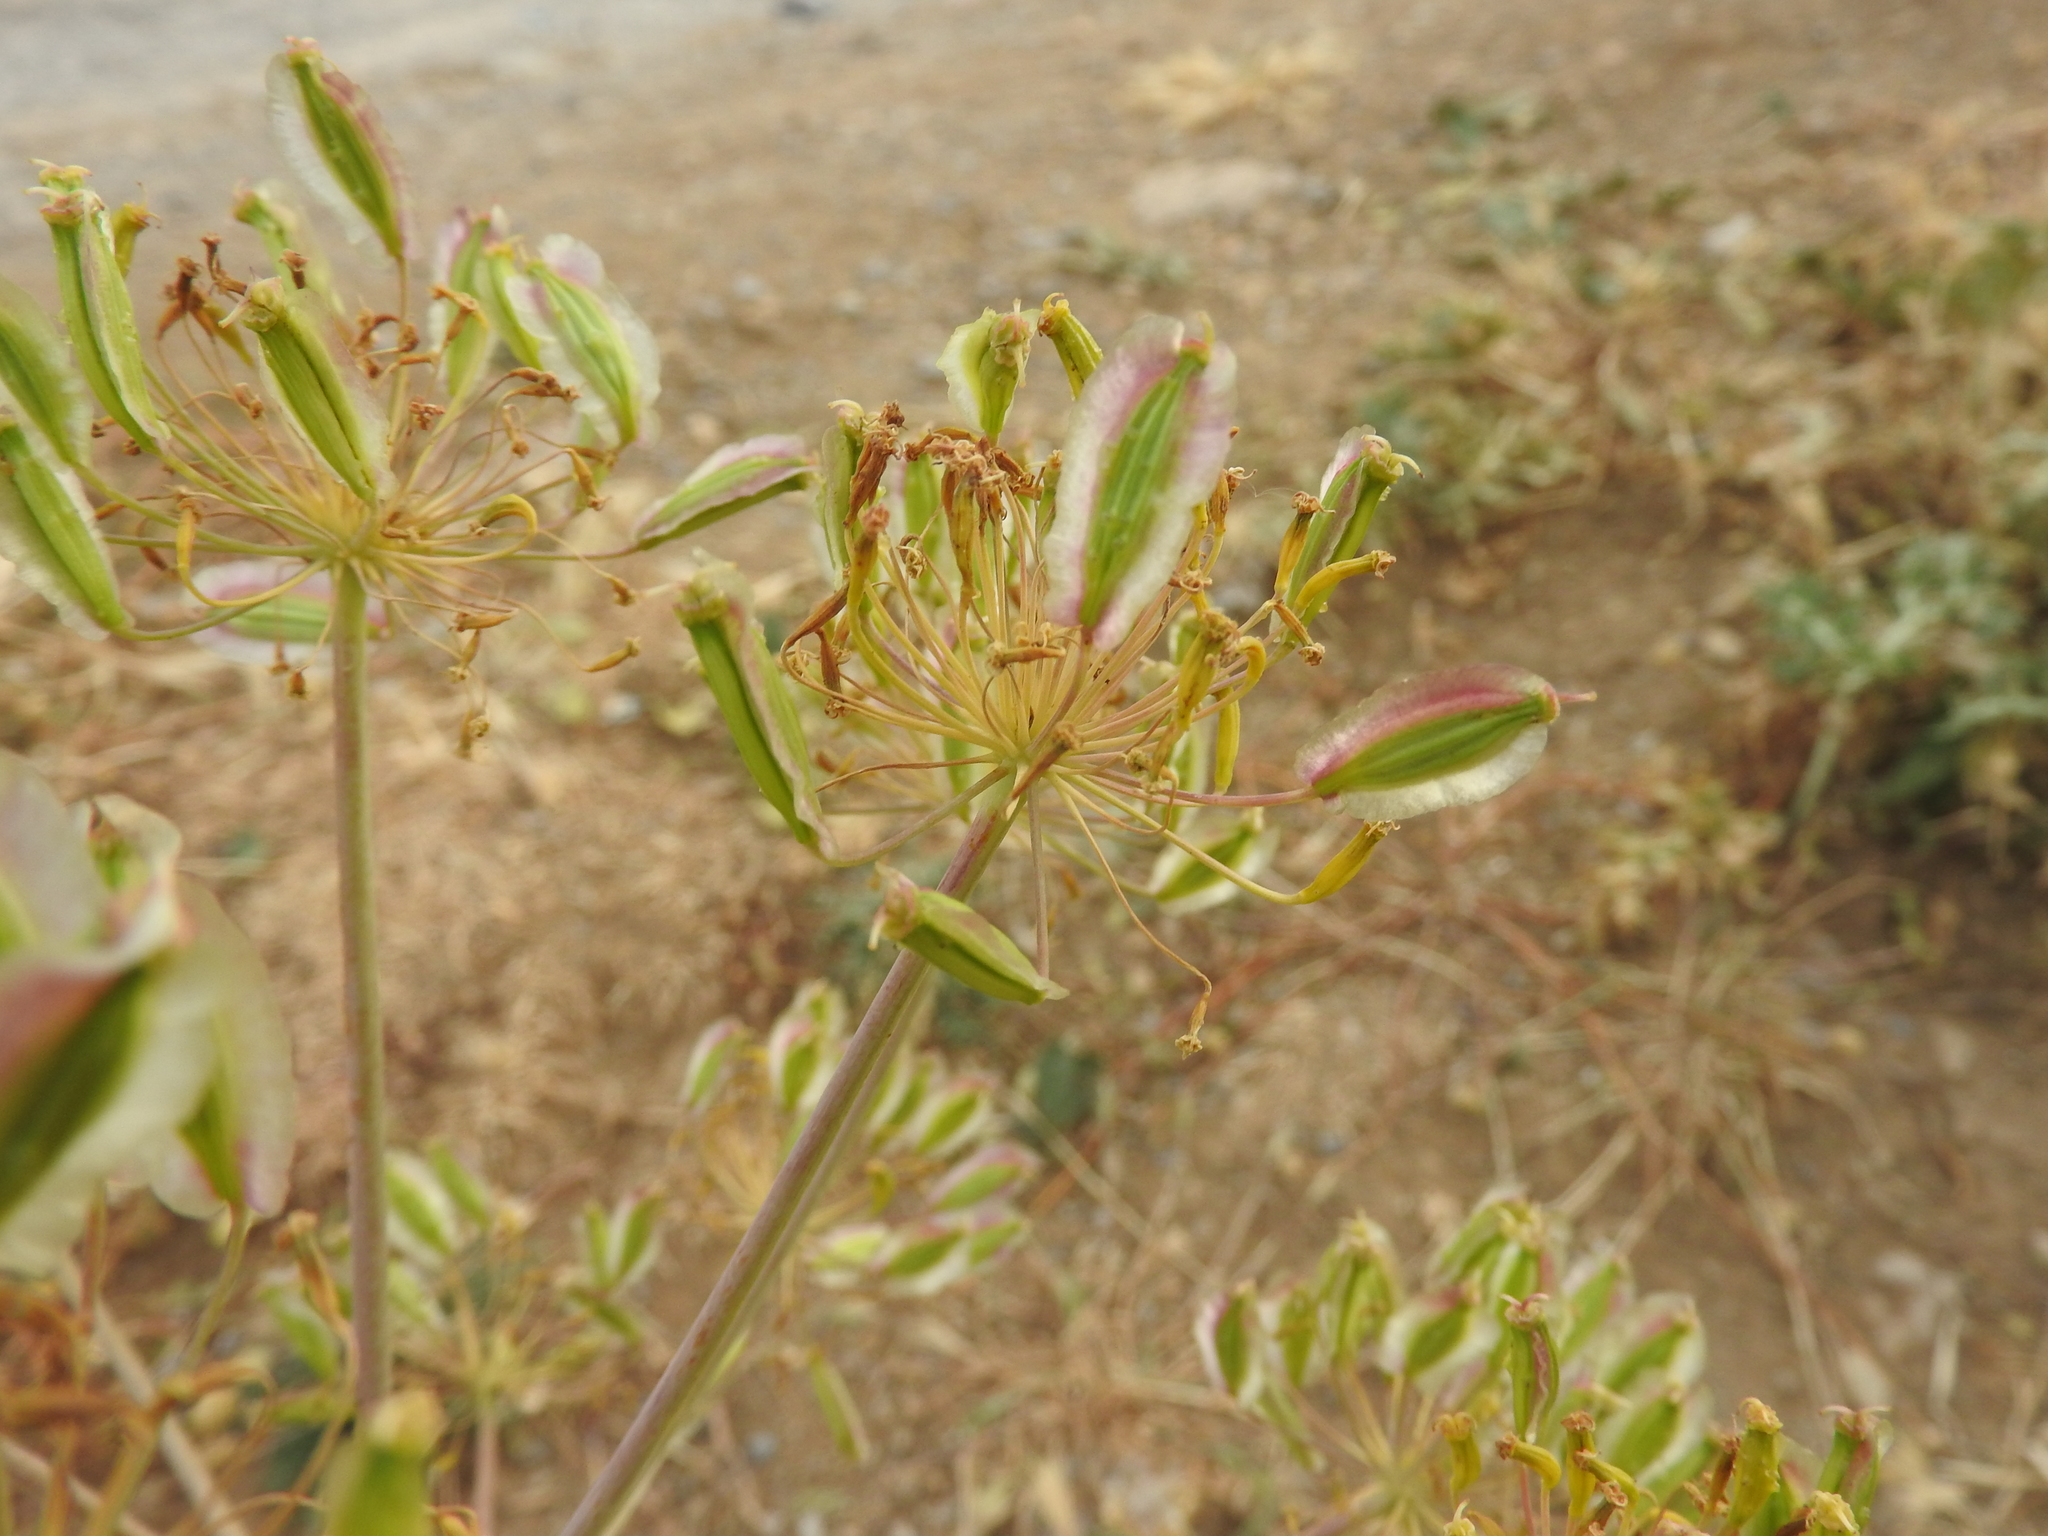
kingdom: Plantae
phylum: Tracheophyta
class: Magnoliopsida
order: Apiales
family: Apiaceae
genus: Thapsia
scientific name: Thapsia garganica
